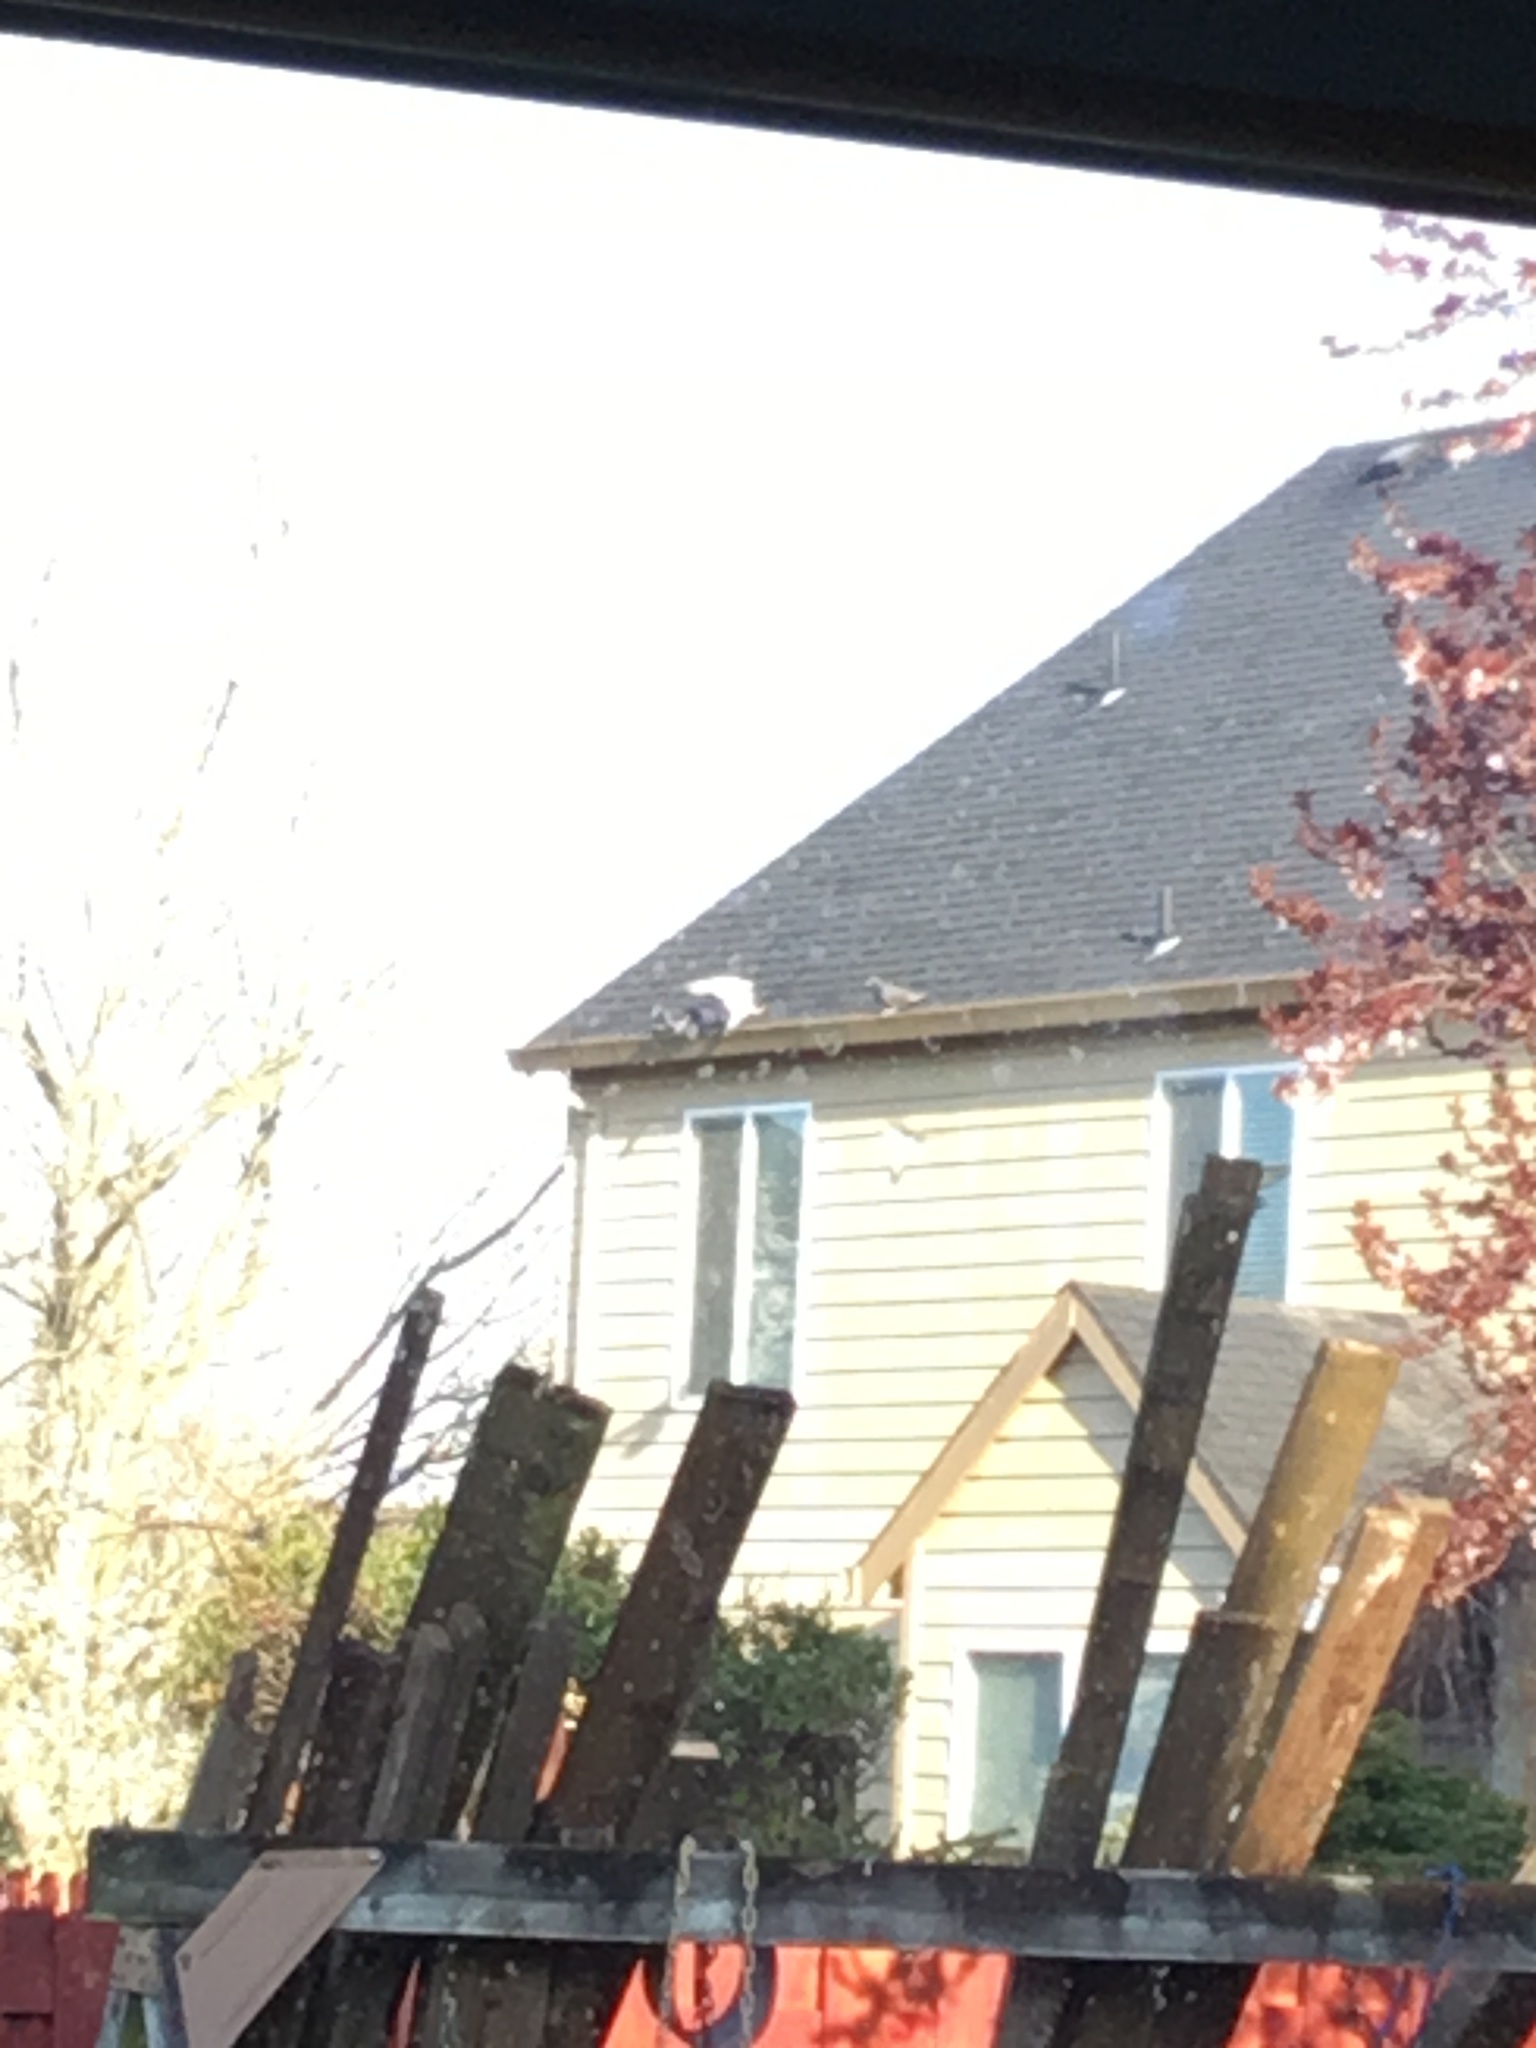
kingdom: Animalia
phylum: Chordata
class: Aves
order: Columbiformes
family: Columbidae
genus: Columba
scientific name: Columba livia
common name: Rock pigeon
